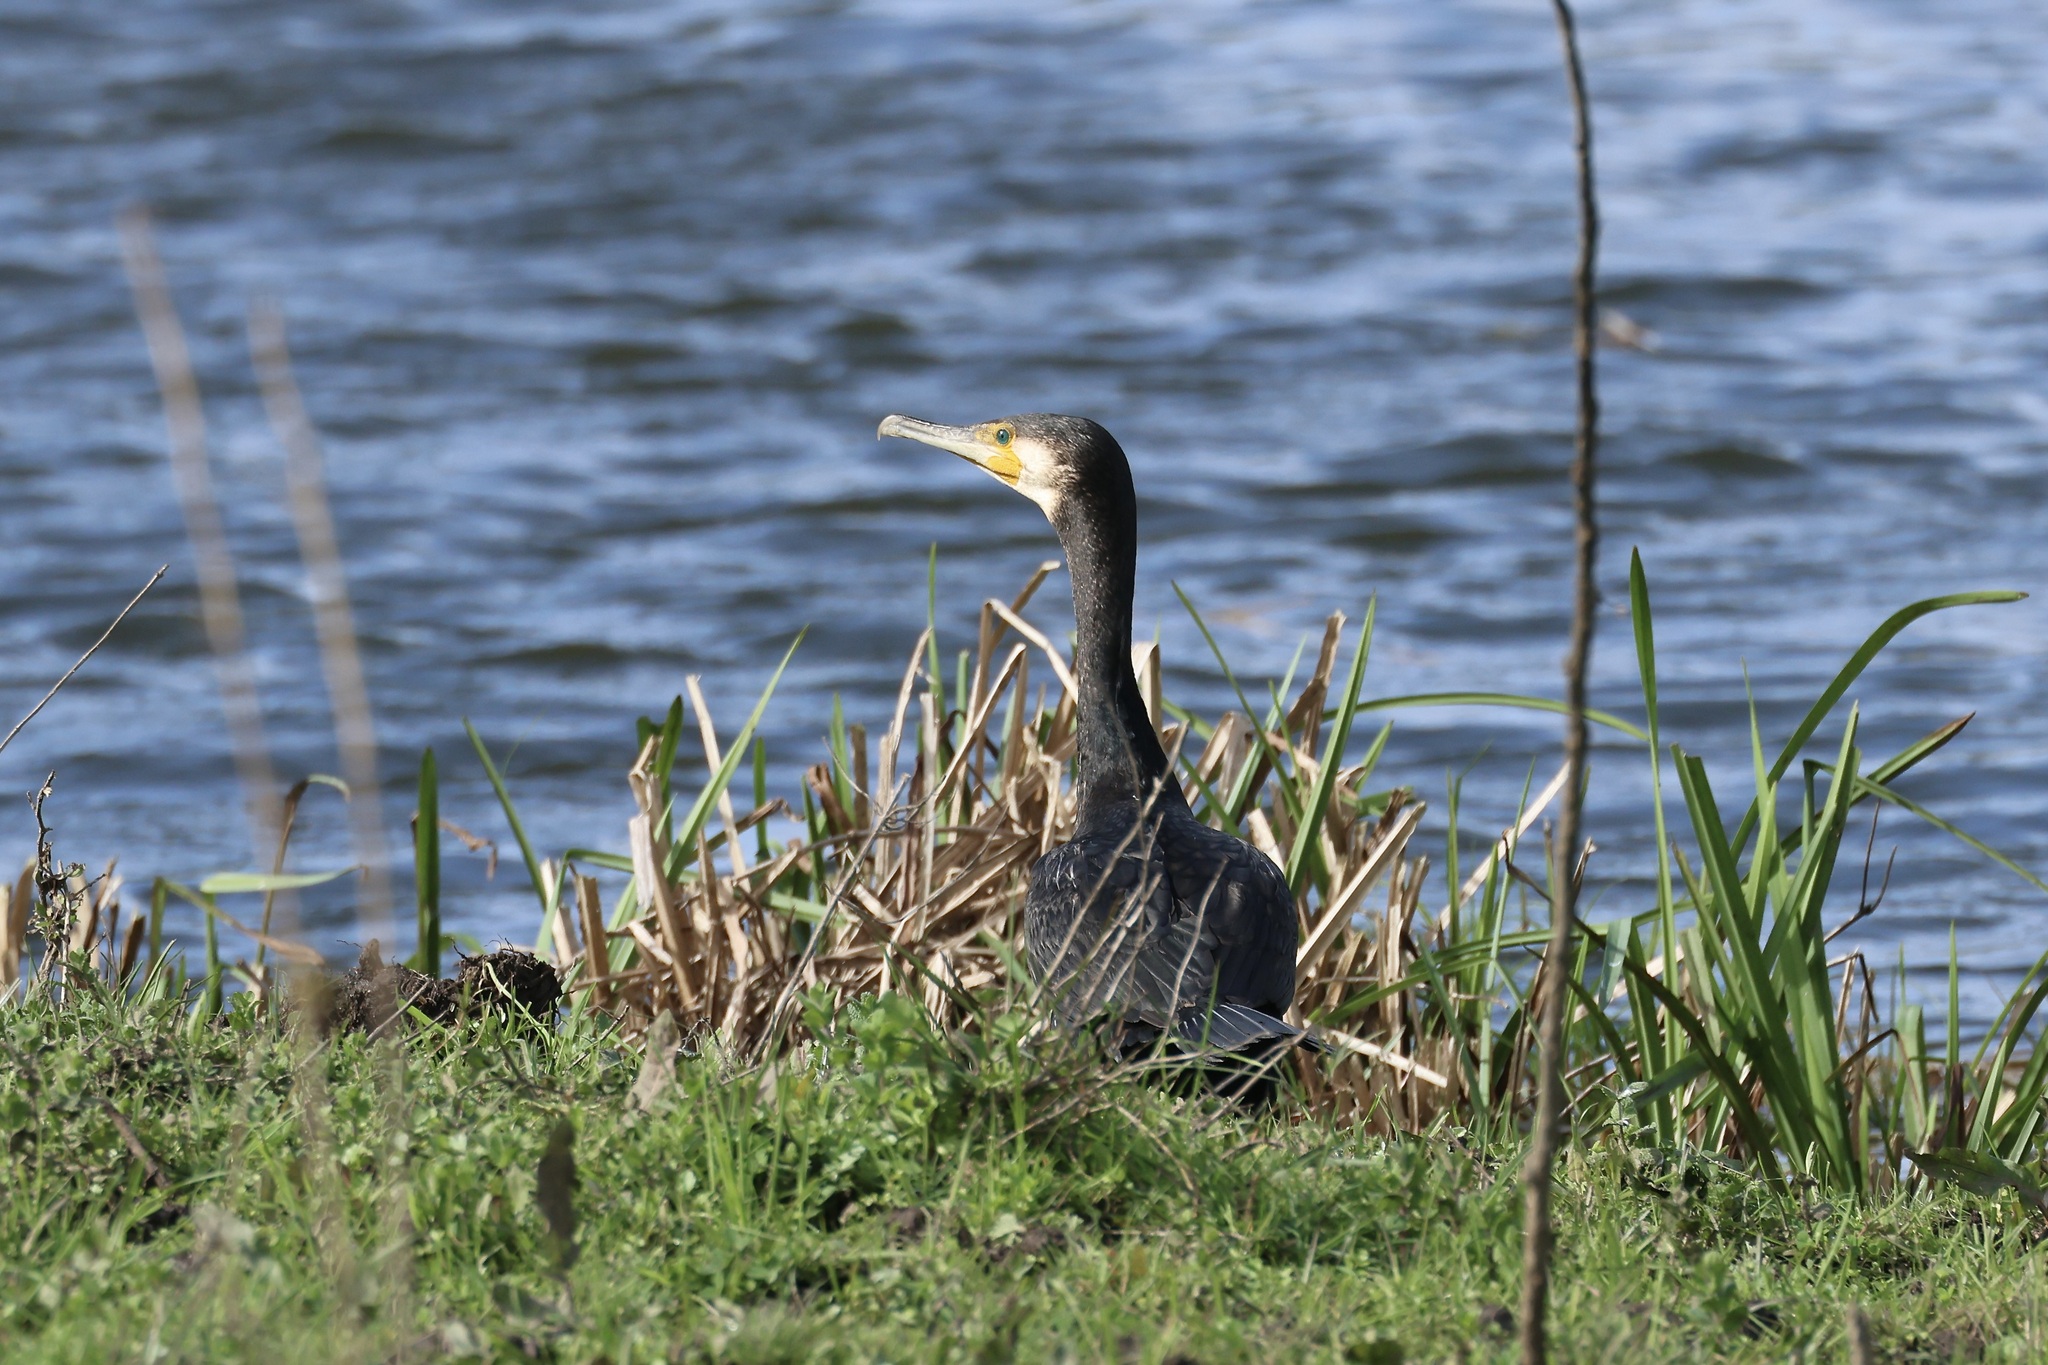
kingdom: Animalia
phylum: Chordata
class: Aves
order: Suliformes
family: Phalacrocoracidae
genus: Phalacrocorax
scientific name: Phalacrocorax carbo
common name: Great cormorant
